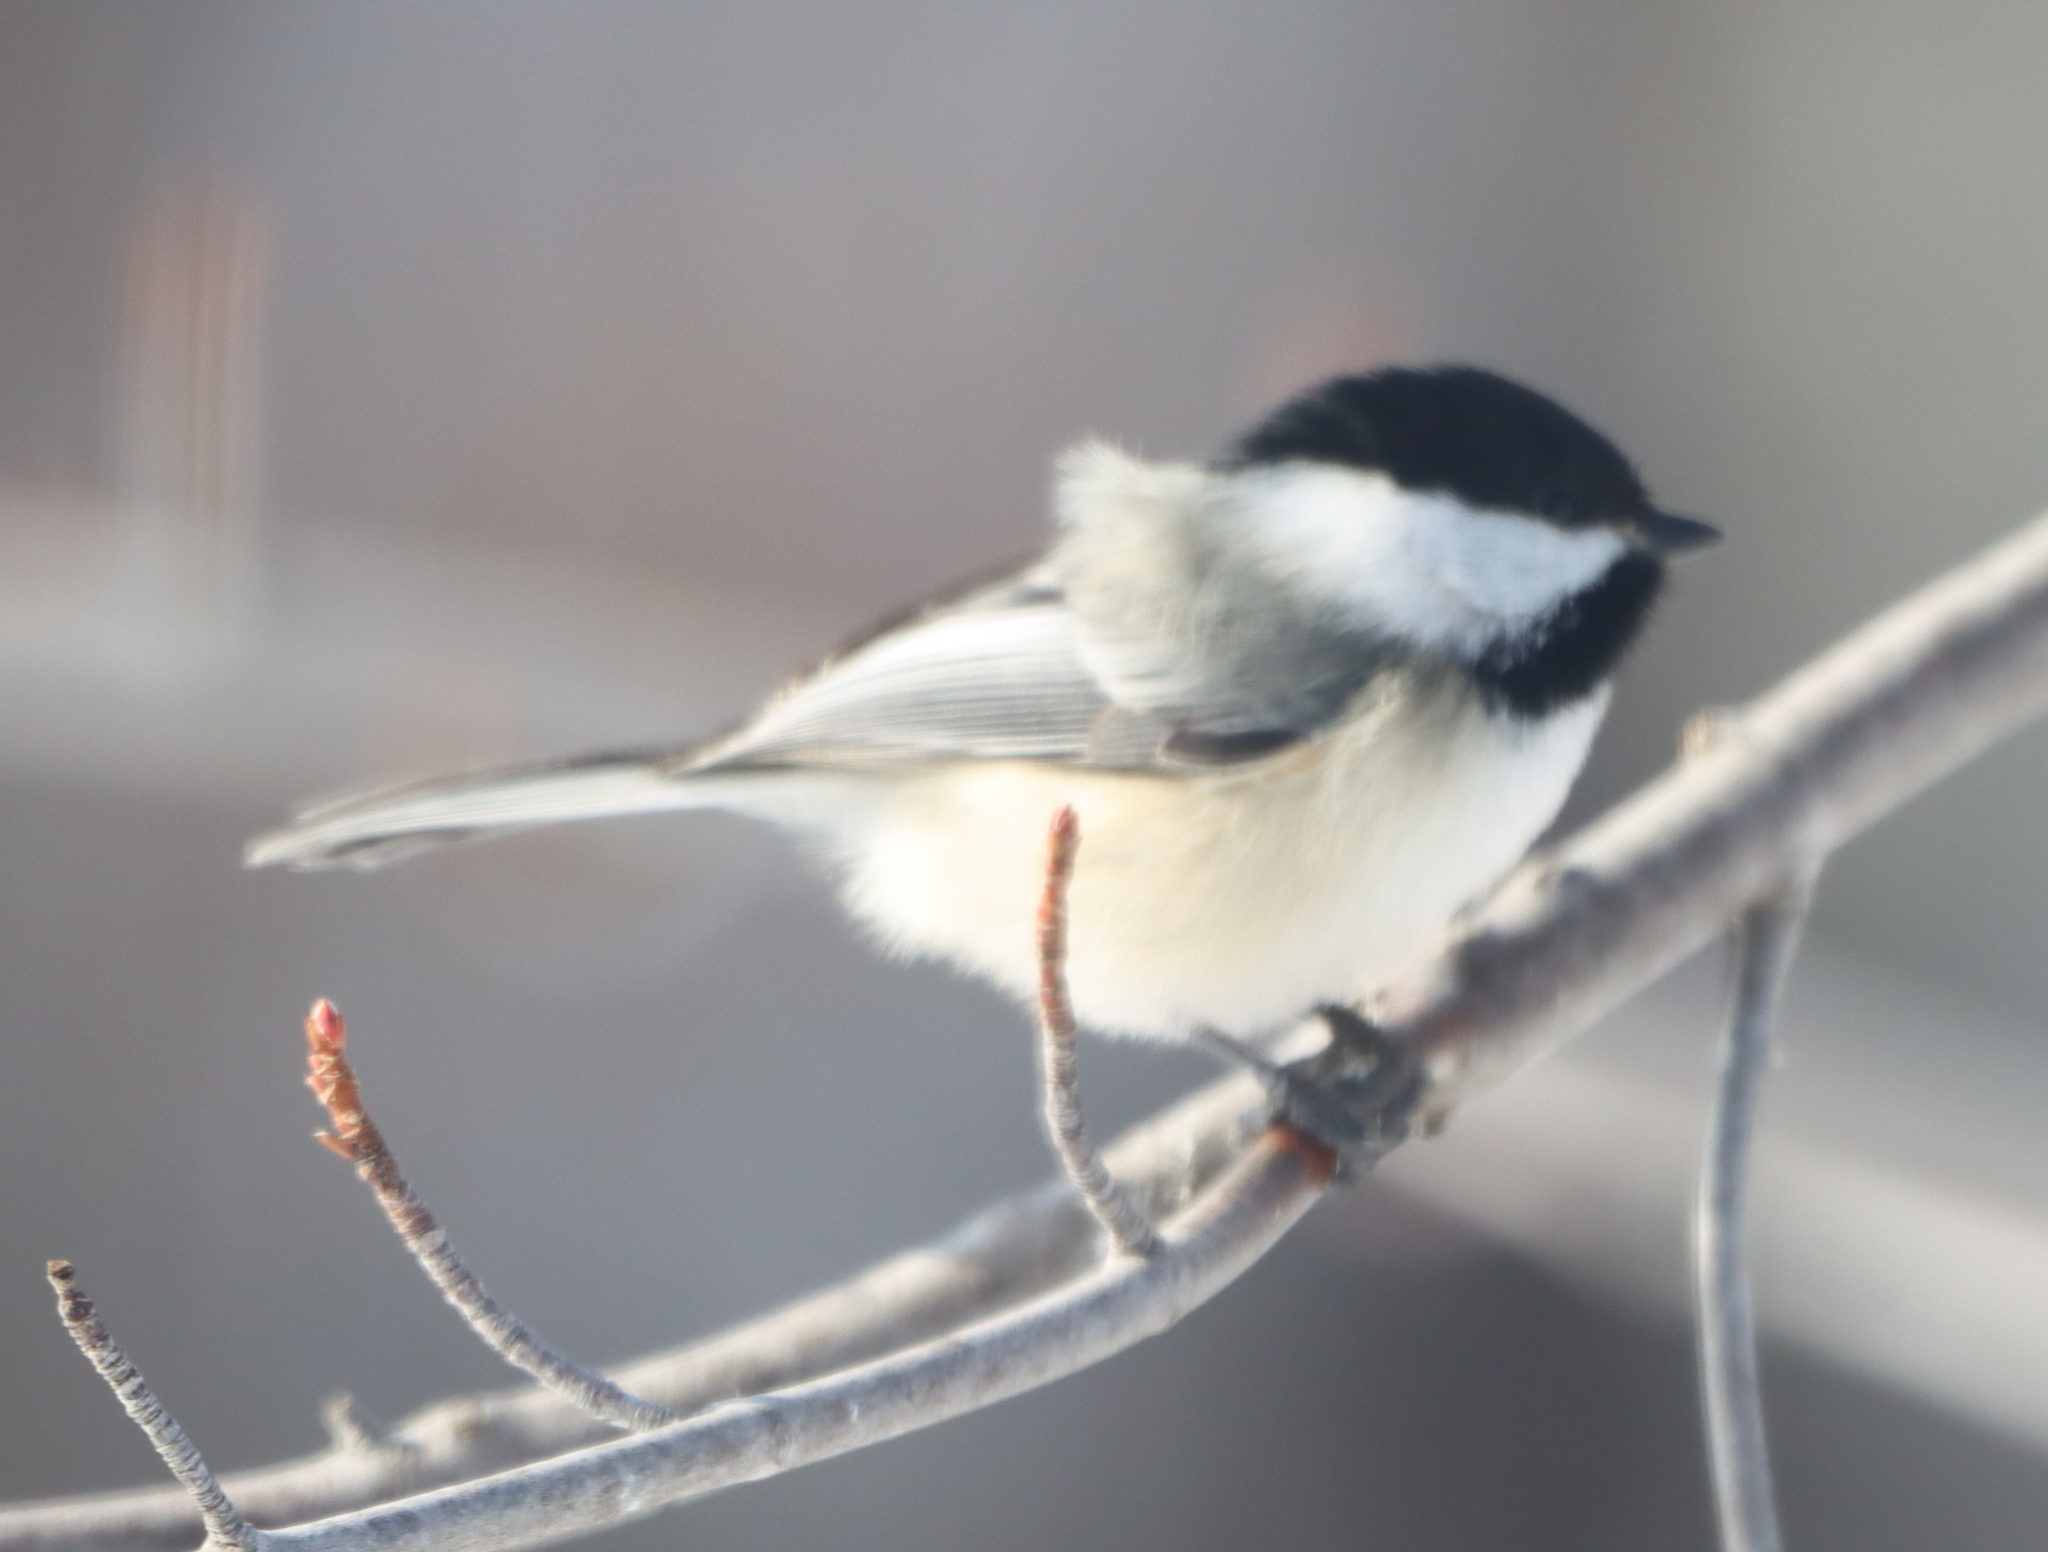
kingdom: Animalia
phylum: Chordata
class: Aves
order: Passeriformes
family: Paridae
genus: Poecile
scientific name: Poecile atricapillus
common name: Black-capped chickadee
